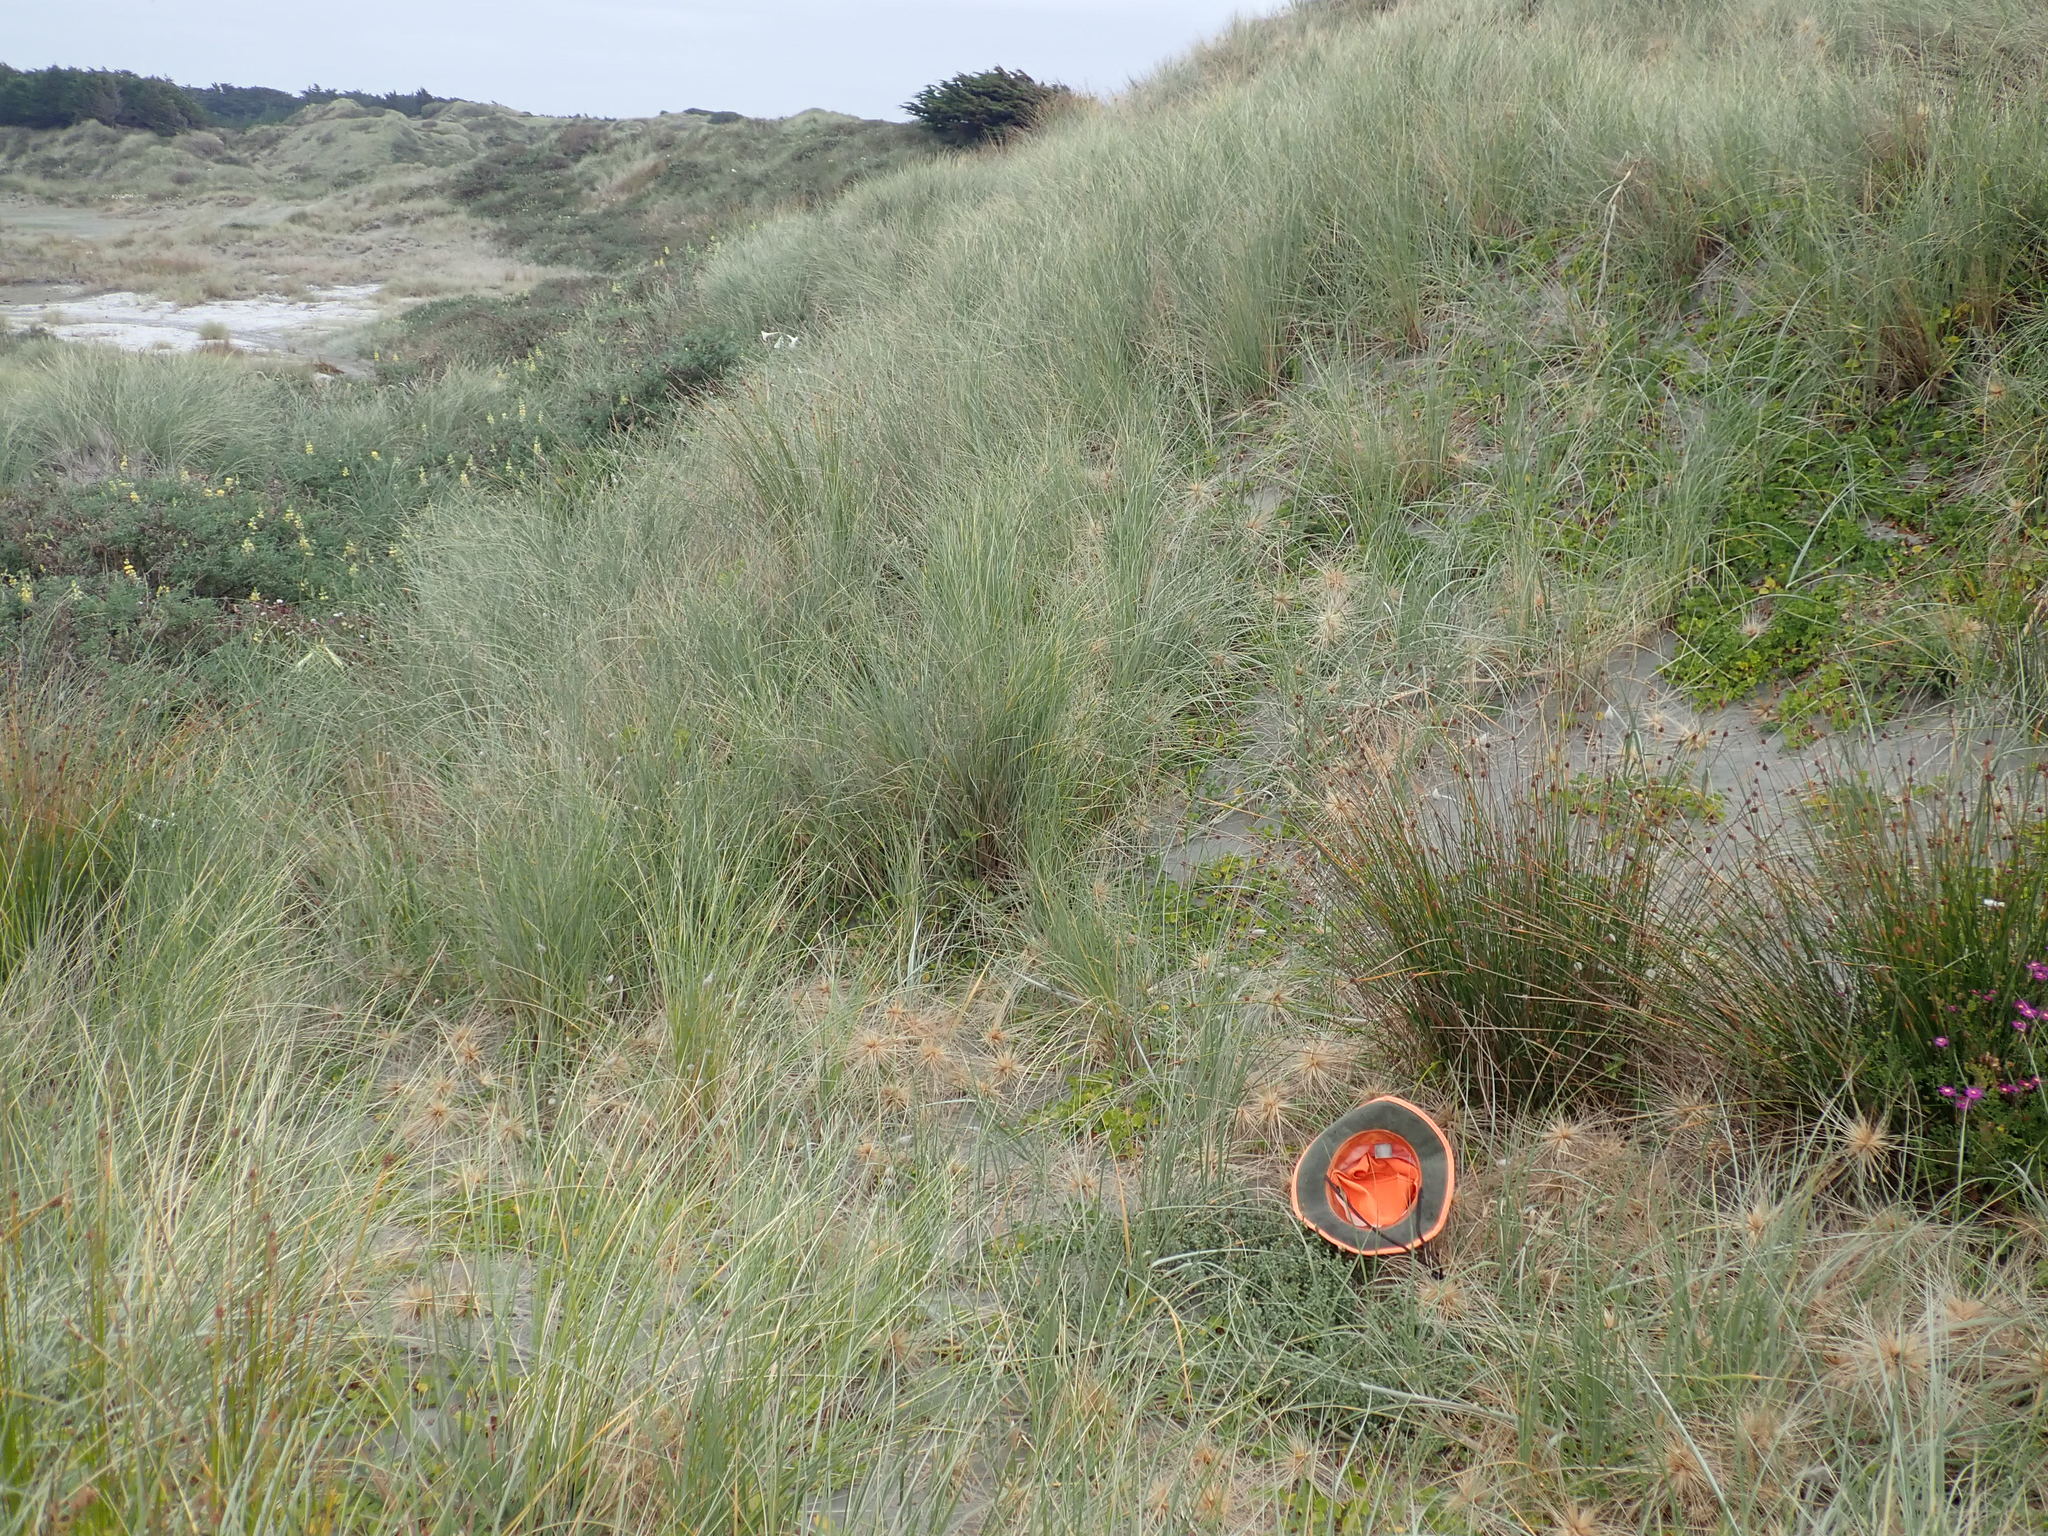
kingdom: Plantae
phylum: Tracheophyta
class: Magnoliopsida
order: Malvales
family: Thymelaeaceae
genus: Pimelea
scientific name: Pimelea villosa
